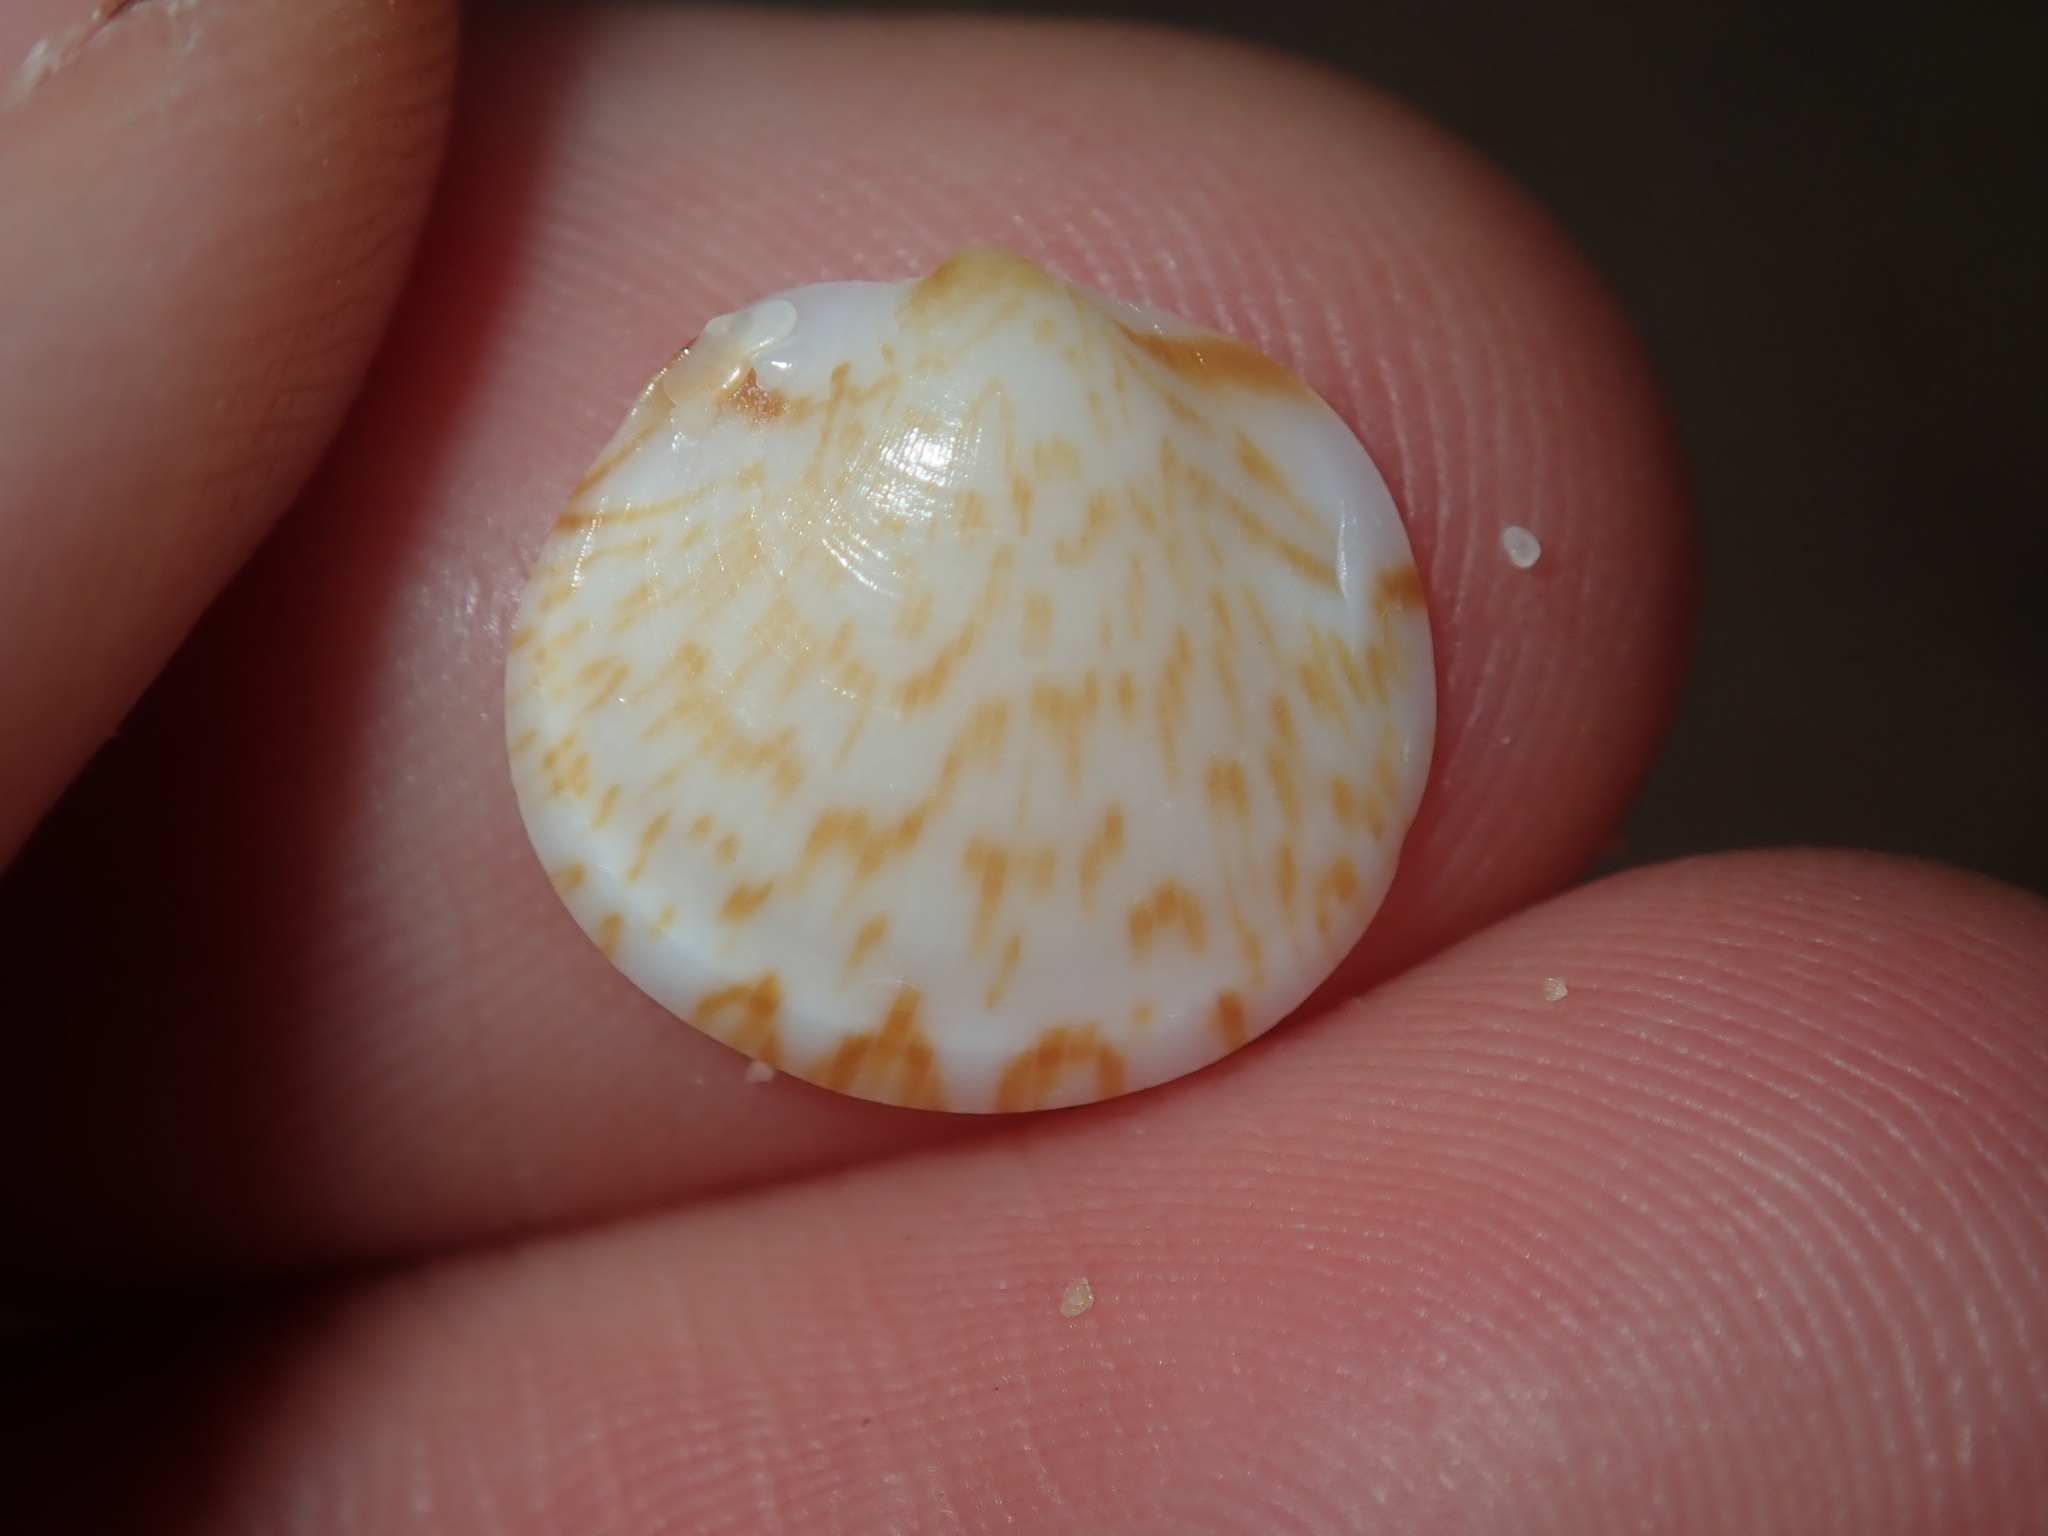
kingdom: Animalia
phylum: Mollusca
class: Bivalvia
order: Arcida
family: Glycymerididae
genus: Glycymeris
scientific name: Glycymeris grayana
